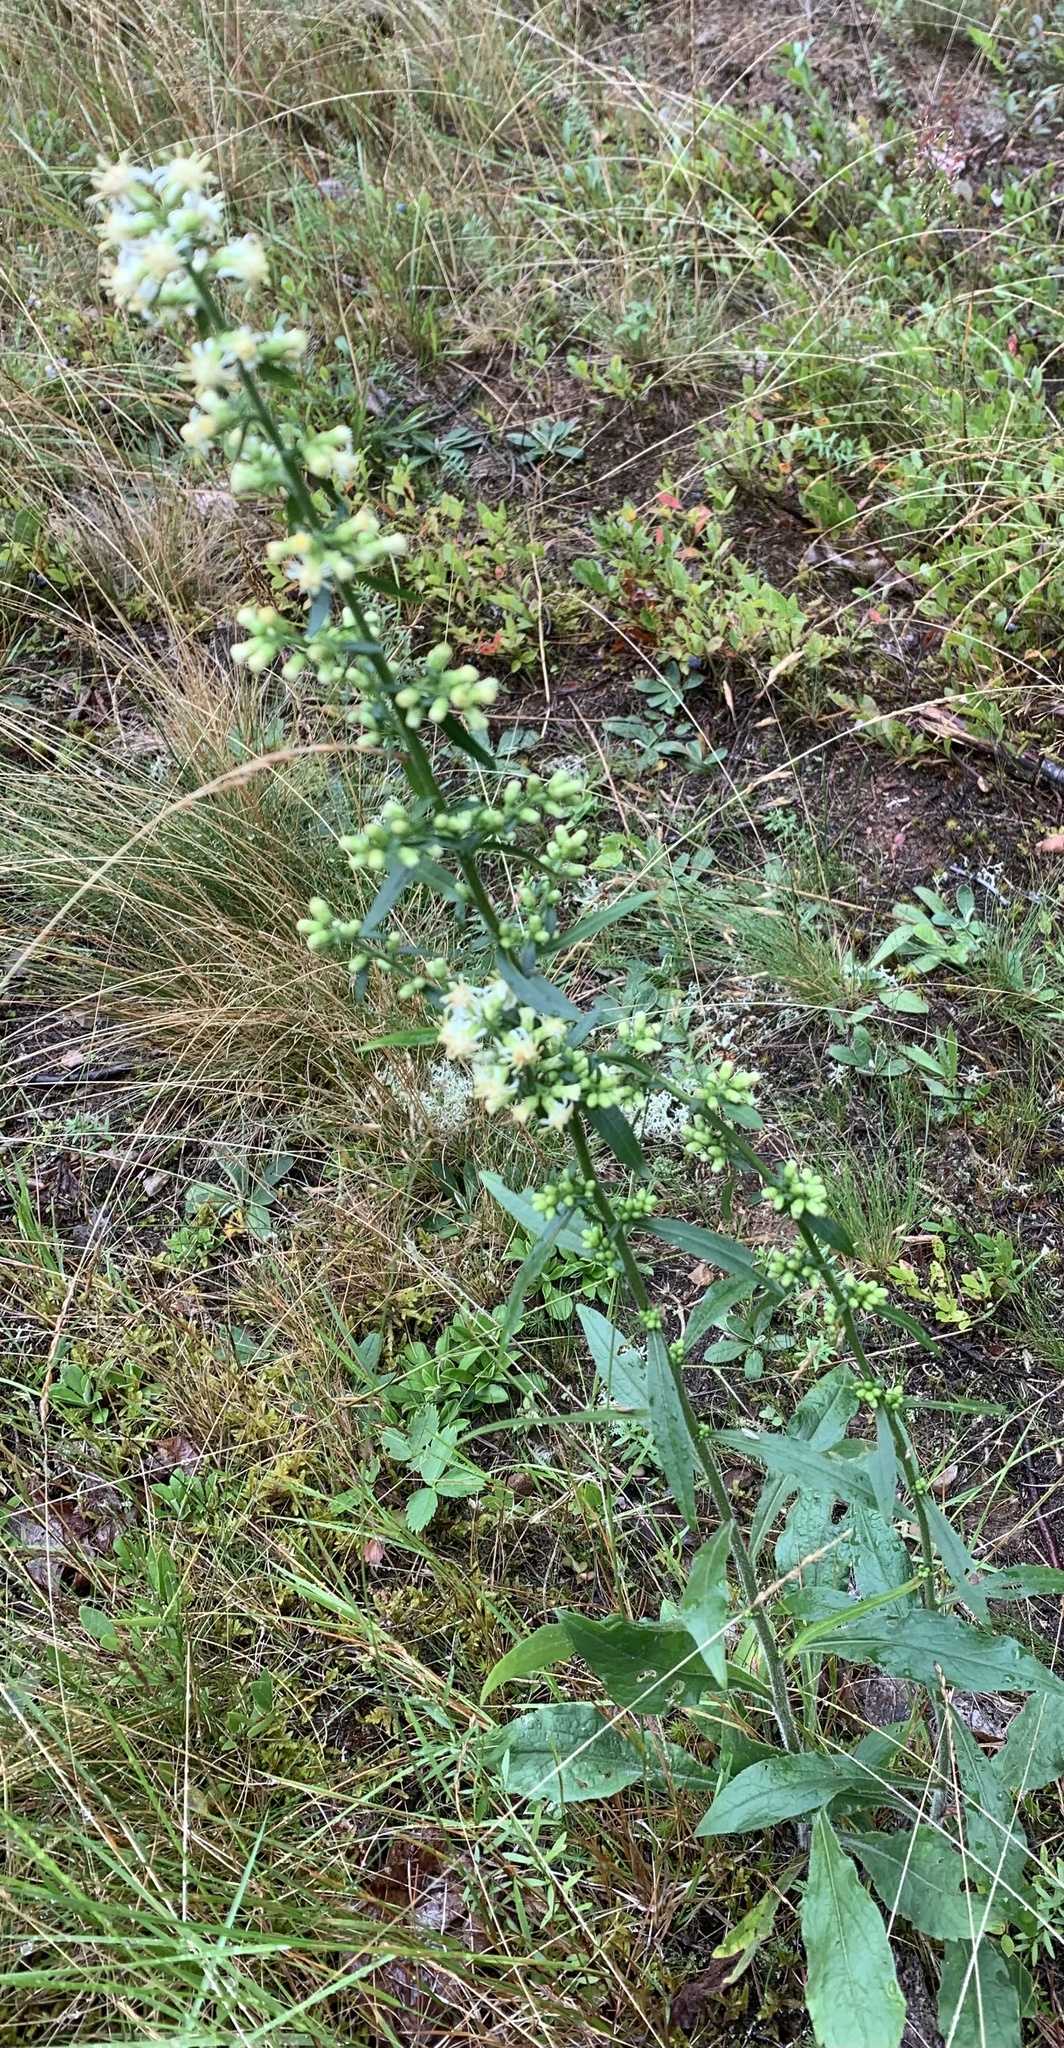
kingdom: Plantae
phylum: Tracheophyta
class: Magnoliopsida
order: Asterales
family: Asteraceae
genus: Solidago
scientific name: Solidago bicolor
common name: Silverrod
